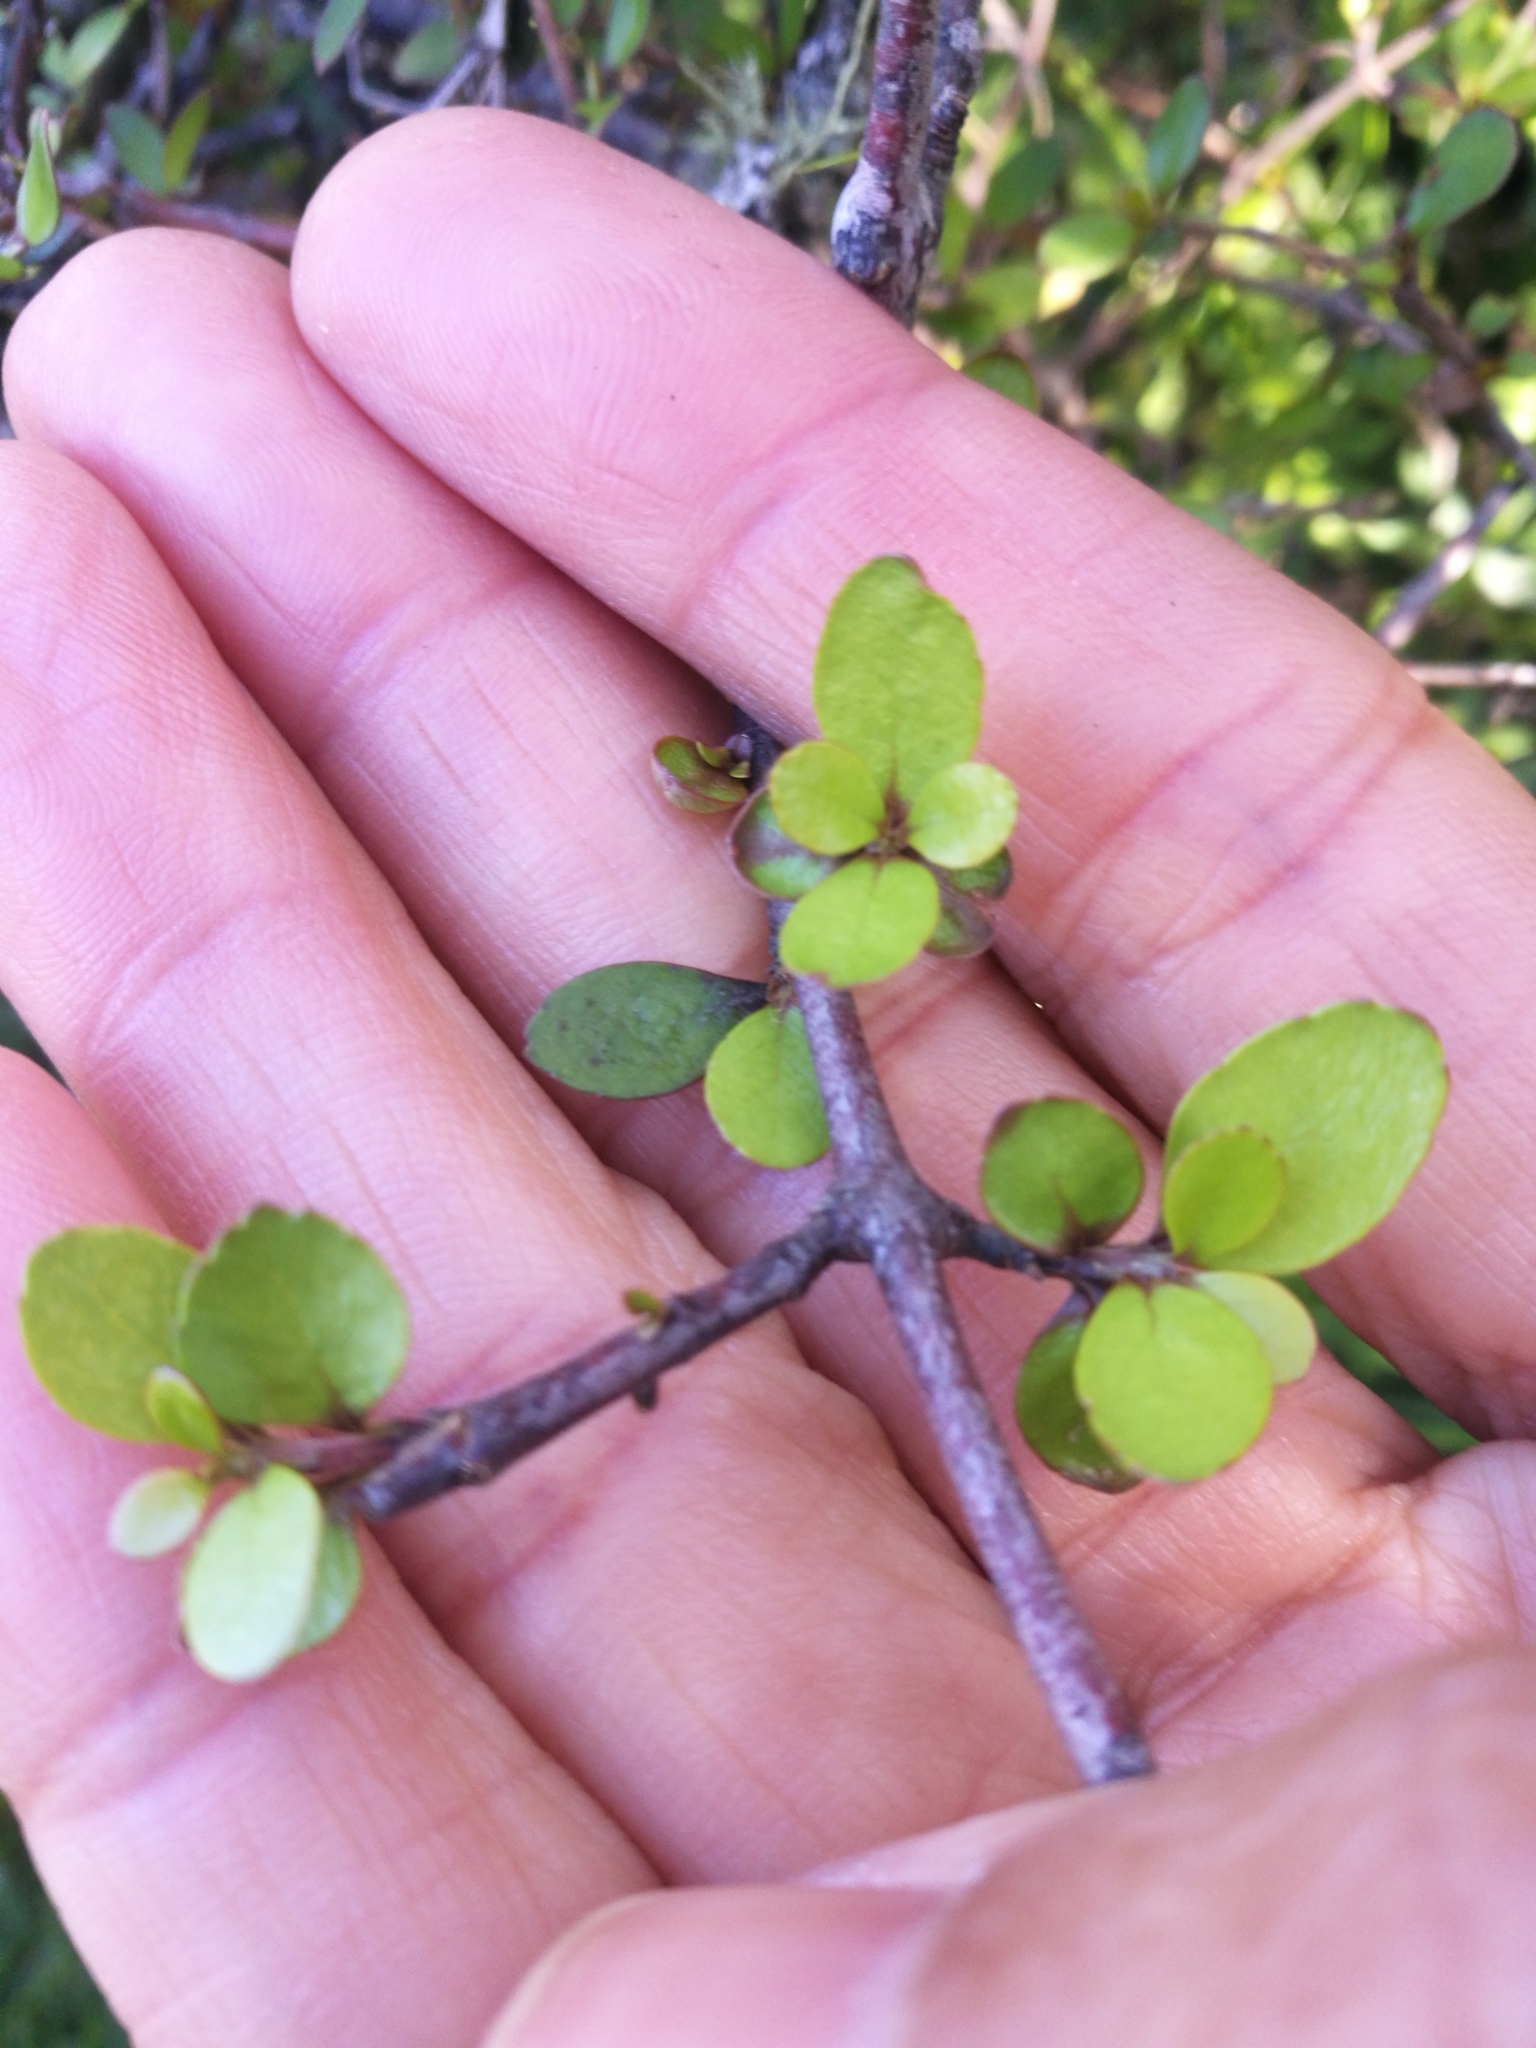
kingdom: Plantae
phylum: Tracheophyta
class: Magnoliopsida
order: Oxalidales
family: Elaeocarpaceae
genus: Aristotelia
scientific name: Aristotelia fruticosa
